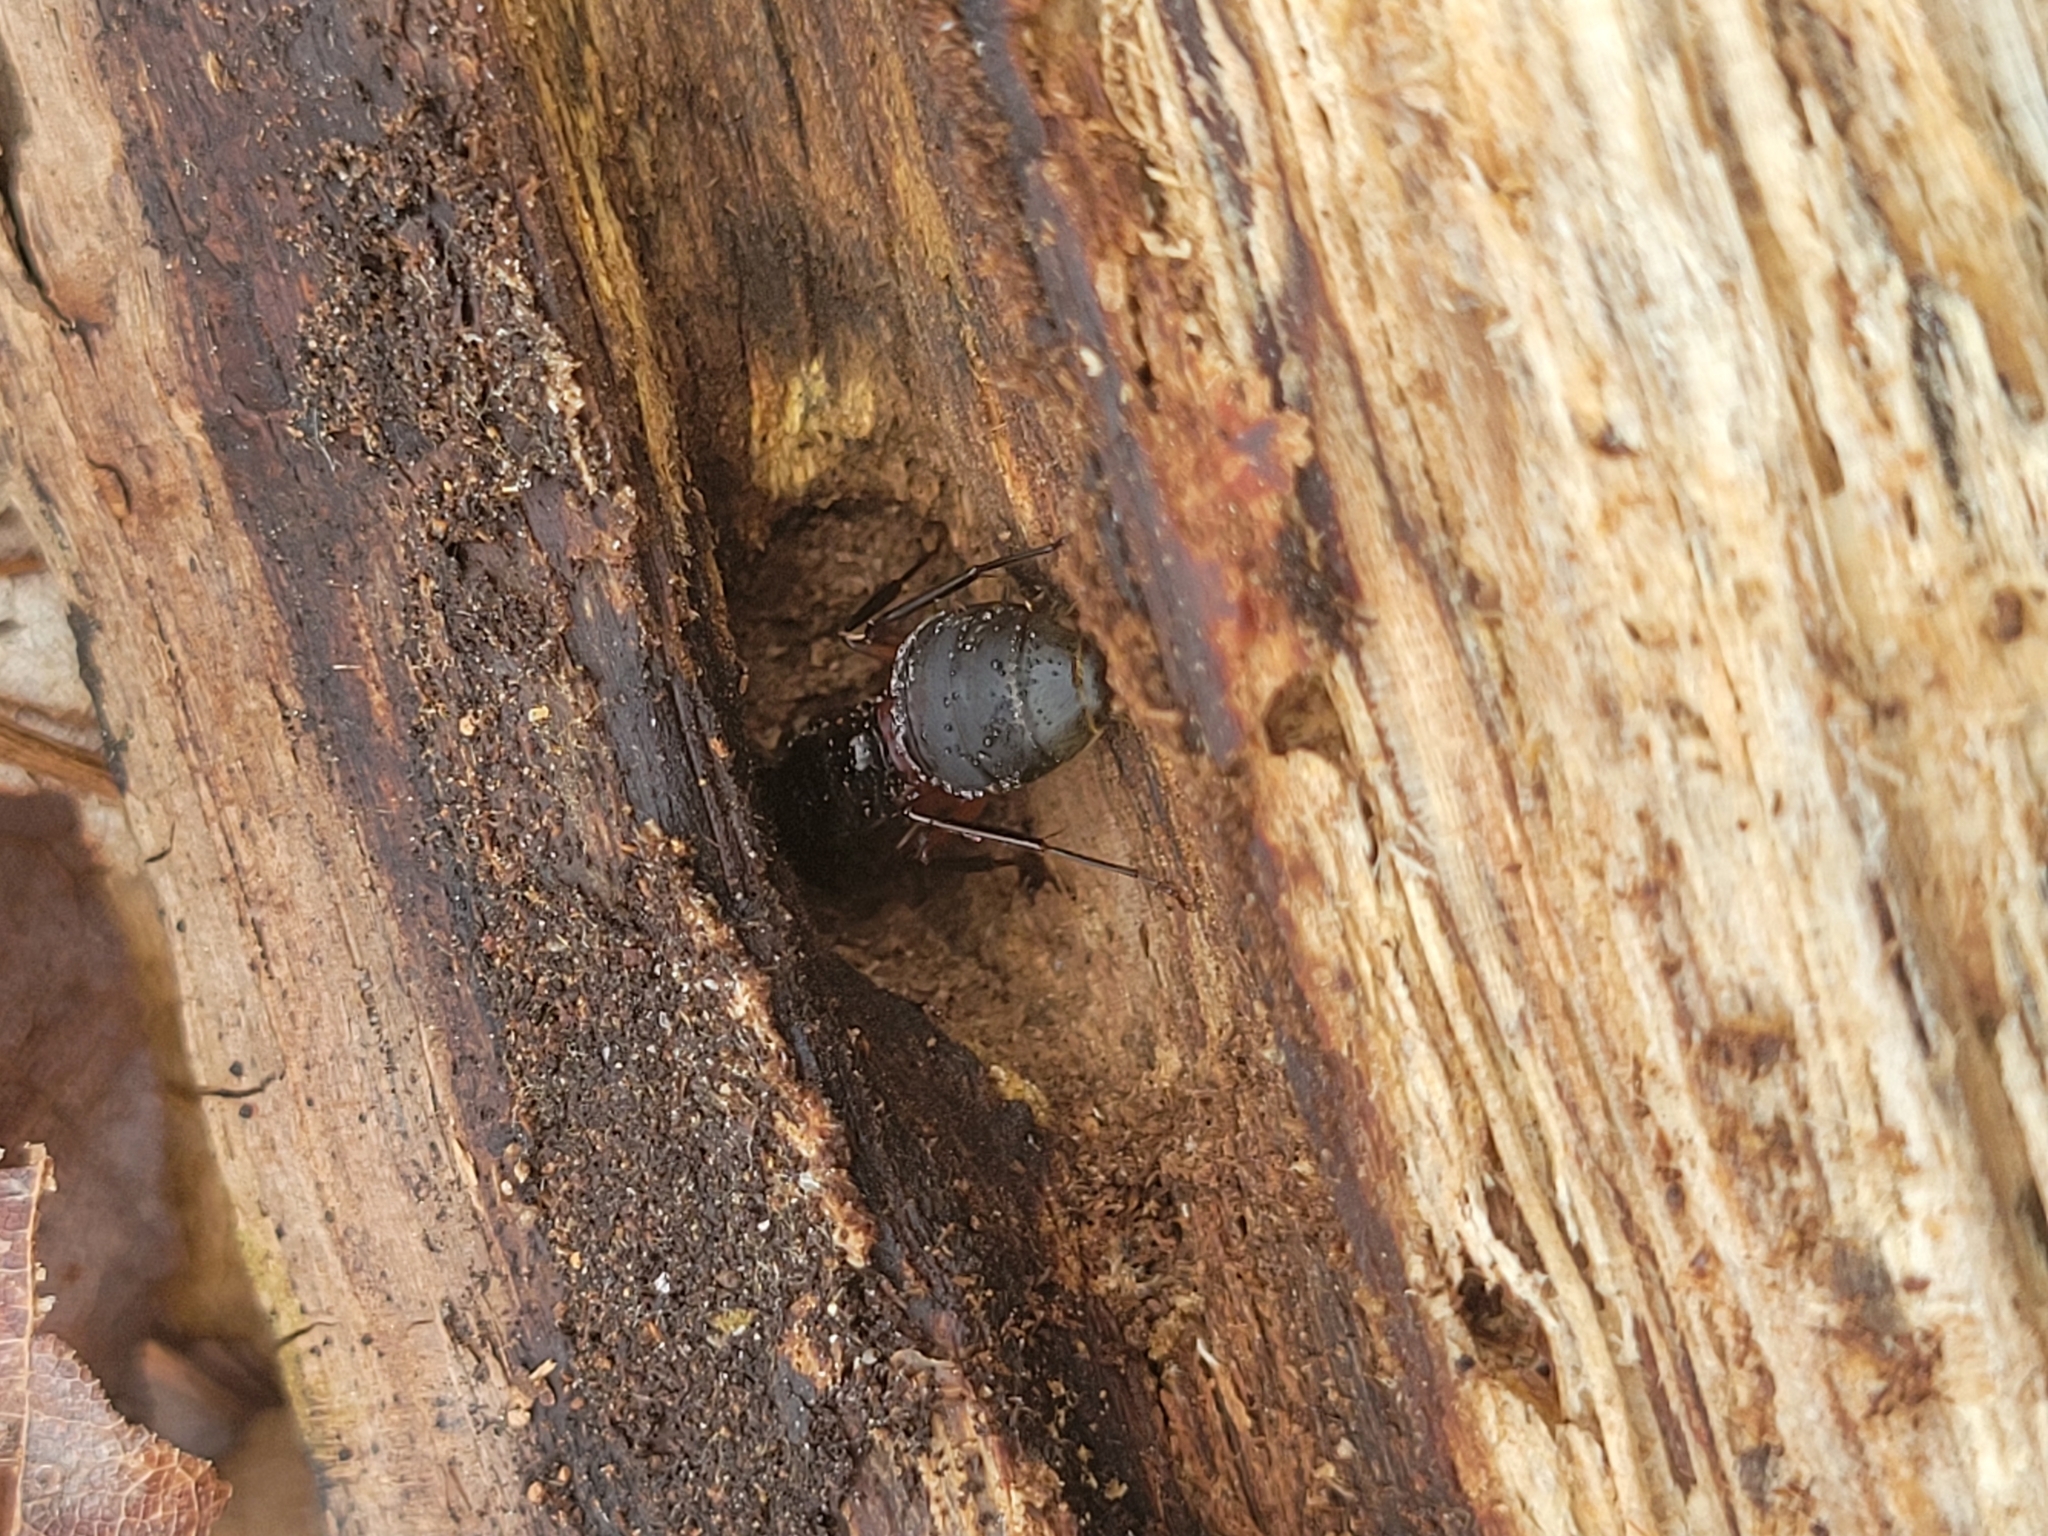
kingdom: Animalia
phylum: Arthropoda
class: Insecta
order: Hymenoptera
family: Formicidae
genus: Camponotus
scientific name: Camponotus chromaiodes
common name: Red carpenter ant
